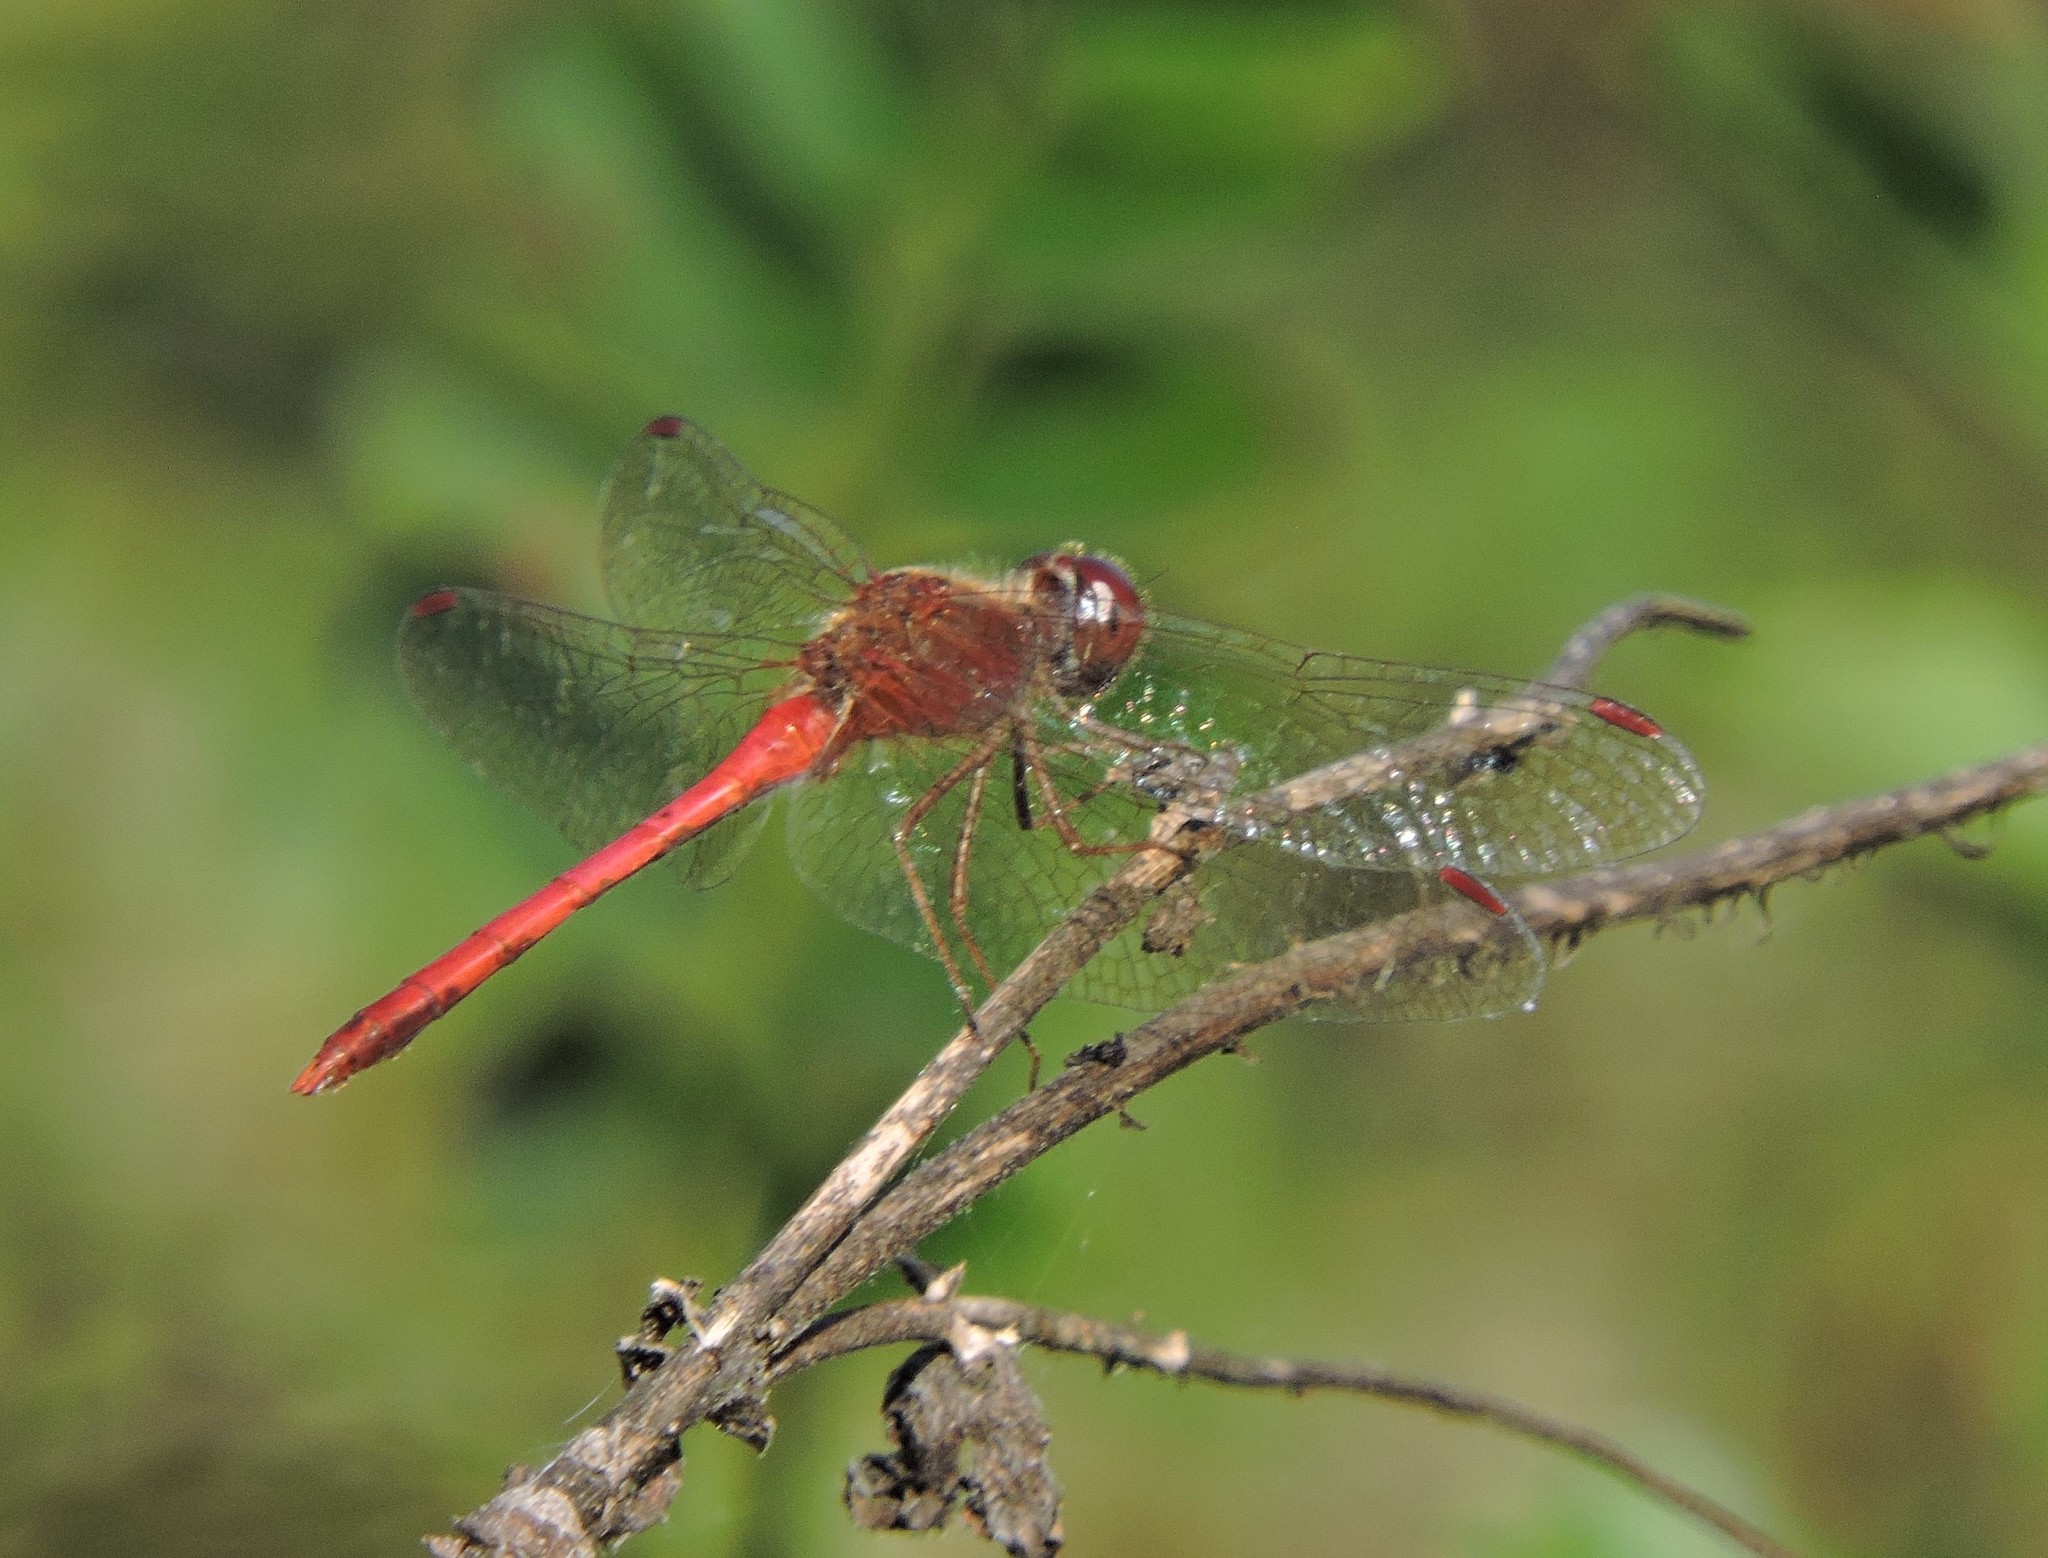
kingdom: Animalia
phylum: Arthropoda
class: Insecta
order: Odonata
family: Libellulidae
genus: Sympetrum
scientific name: Sympetrum vicinum
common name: Autumn meadowhawk
